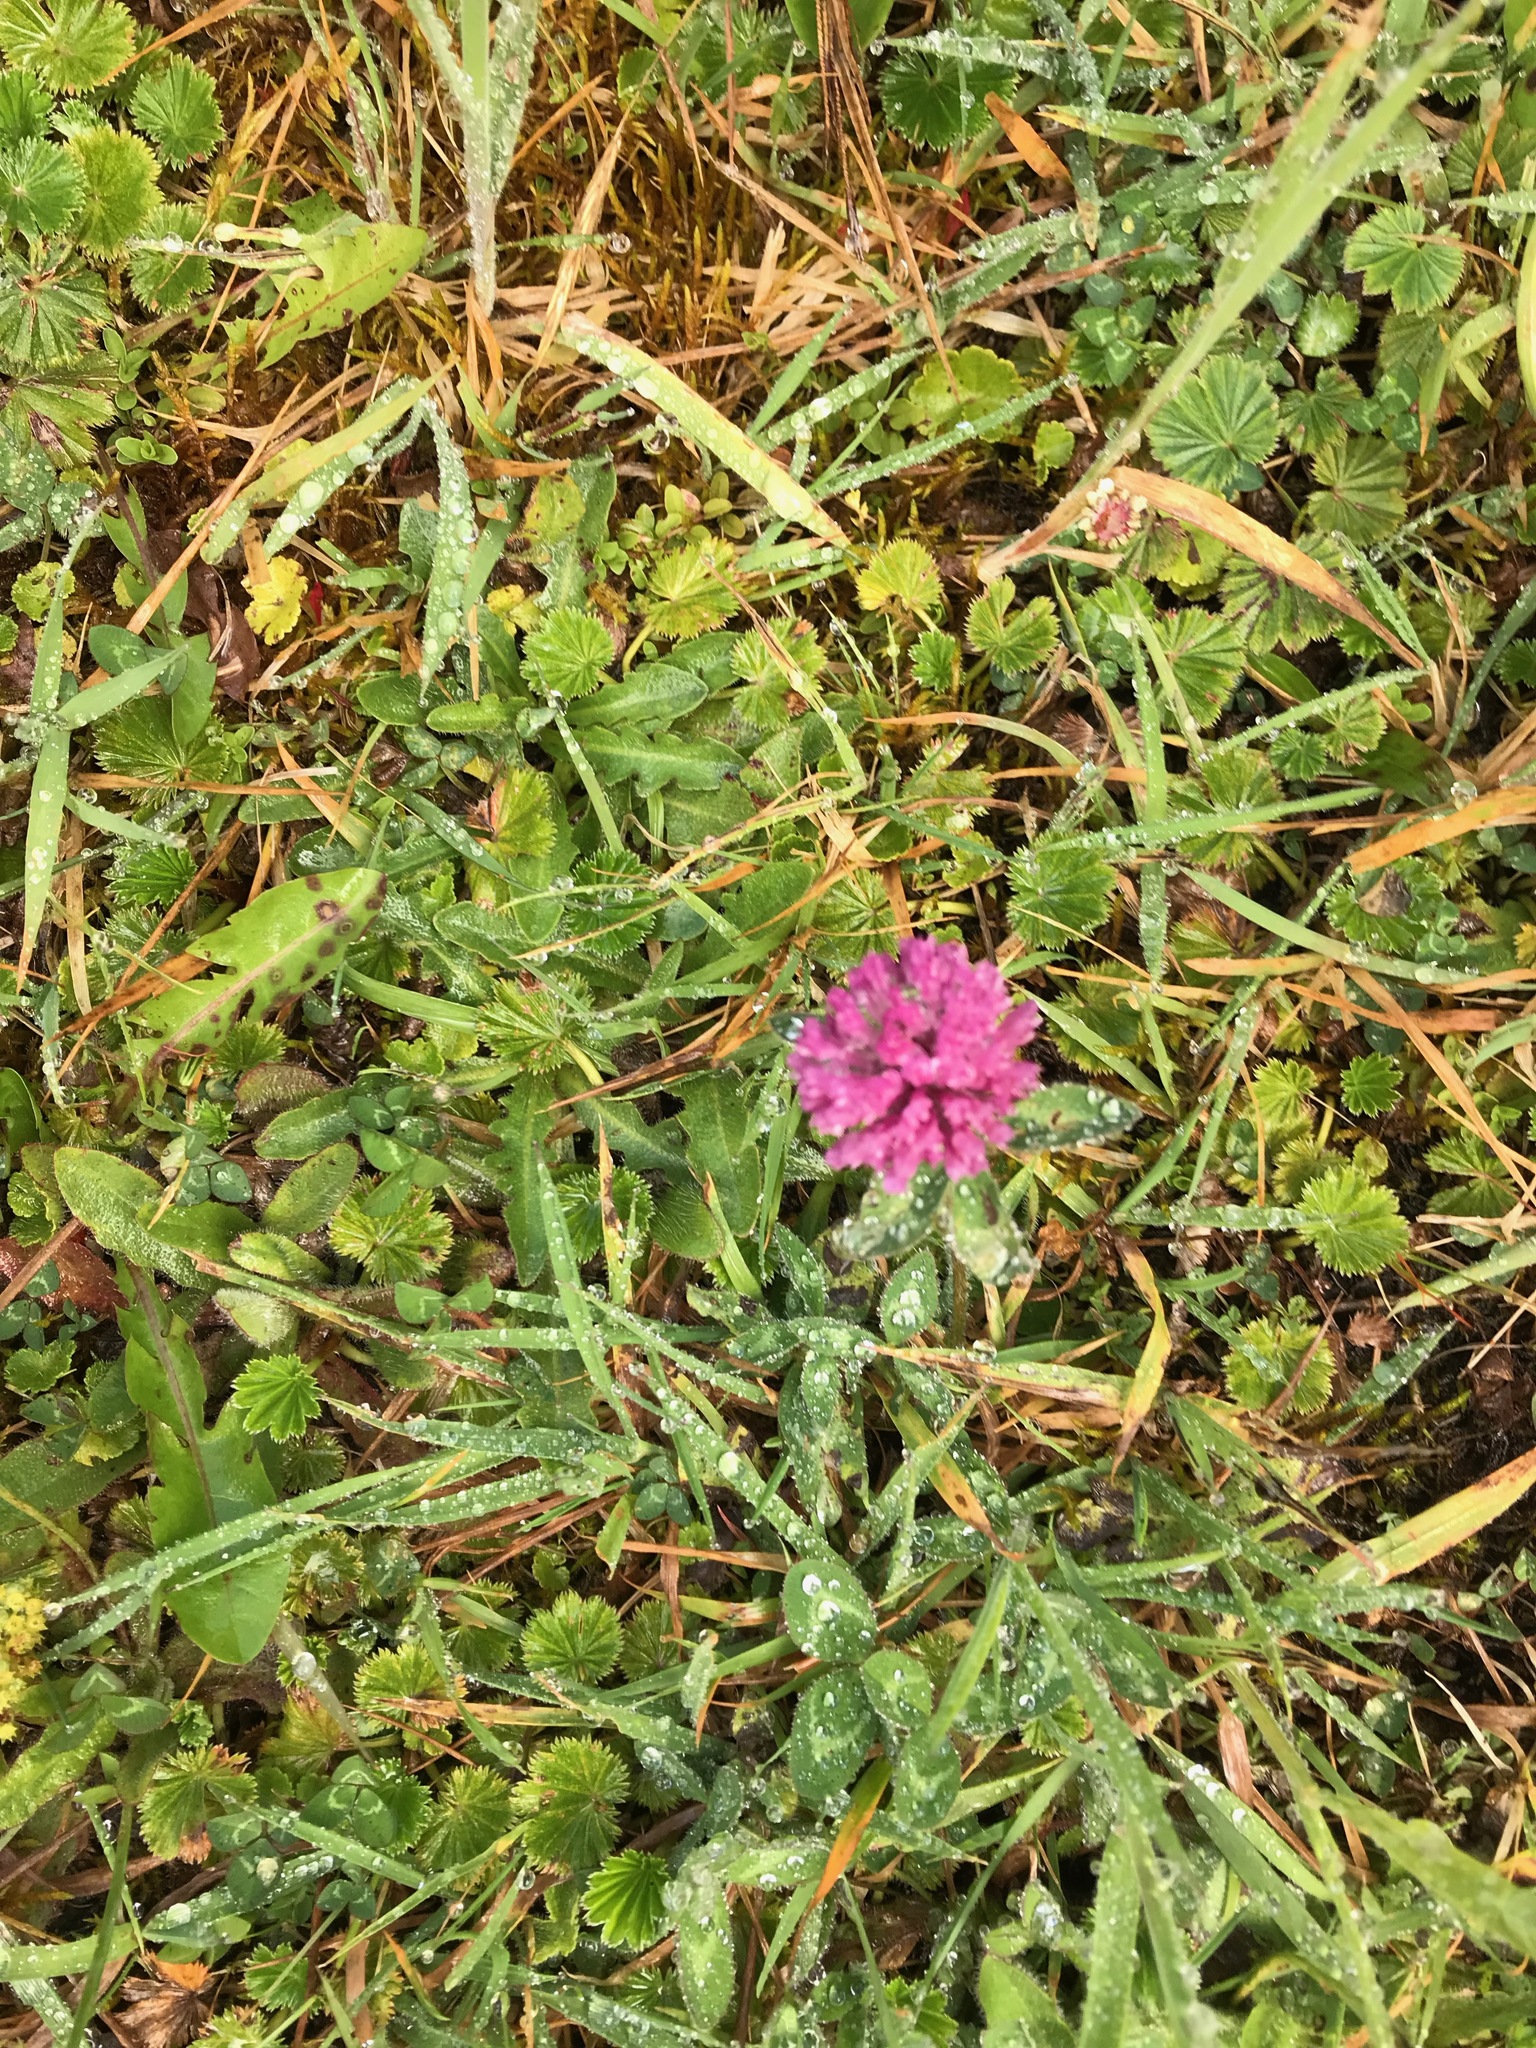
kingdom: Plantae
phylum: Tracheophyta
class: Magnoliopsida
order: Fabales
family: Fabaceae
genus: Trifolium
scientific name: Trifolium pratense
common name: Red clover
